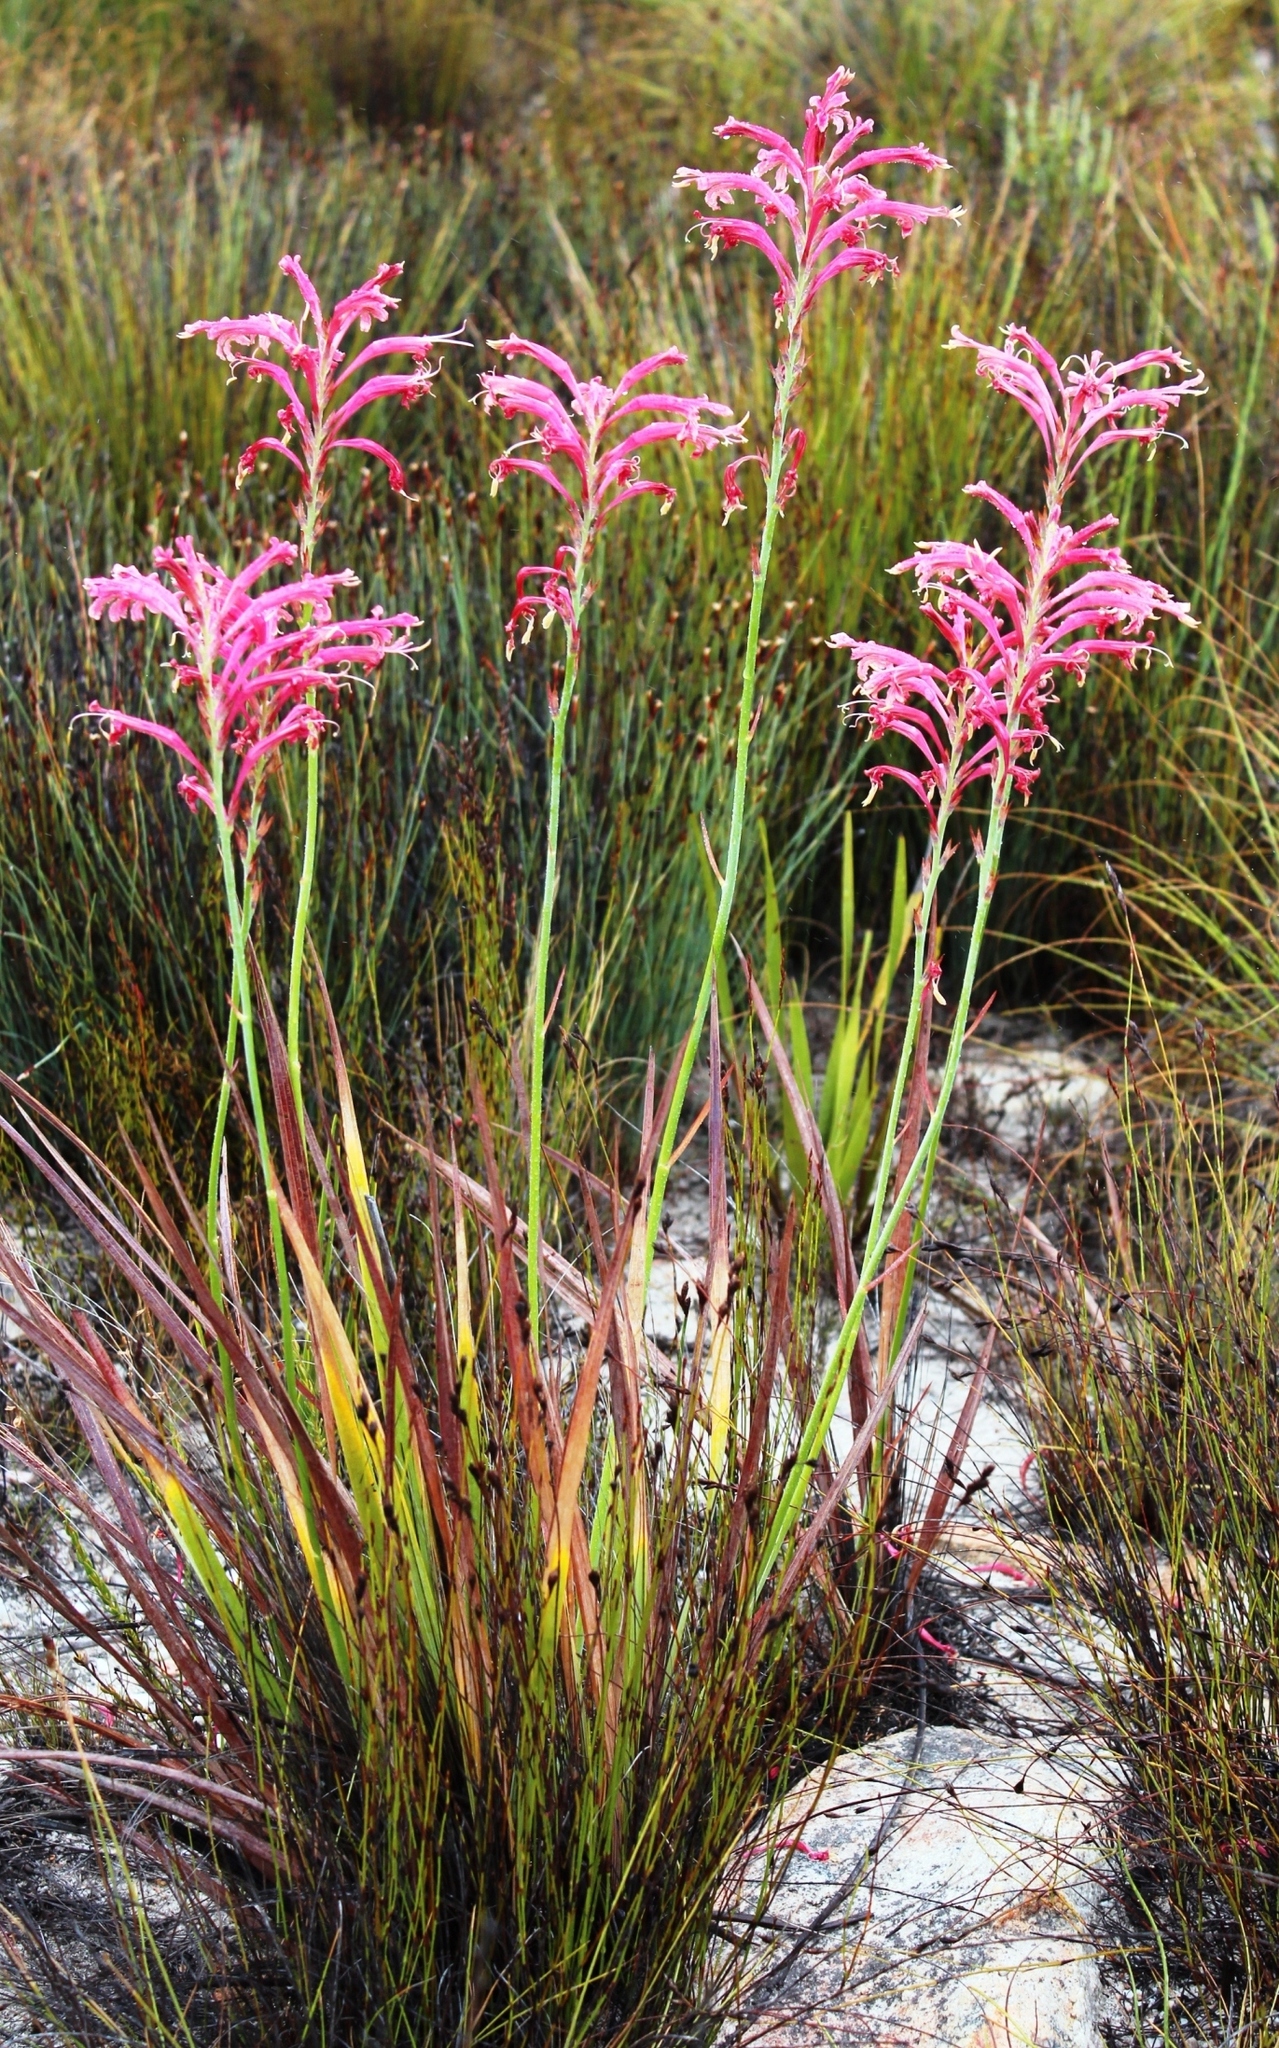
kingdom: Plantae
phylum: Tracheophyta
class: Liliopsida
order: Asparagales
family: Iridaceae
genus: Tritoniopsis
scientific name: Tritoniopsis antholyza
